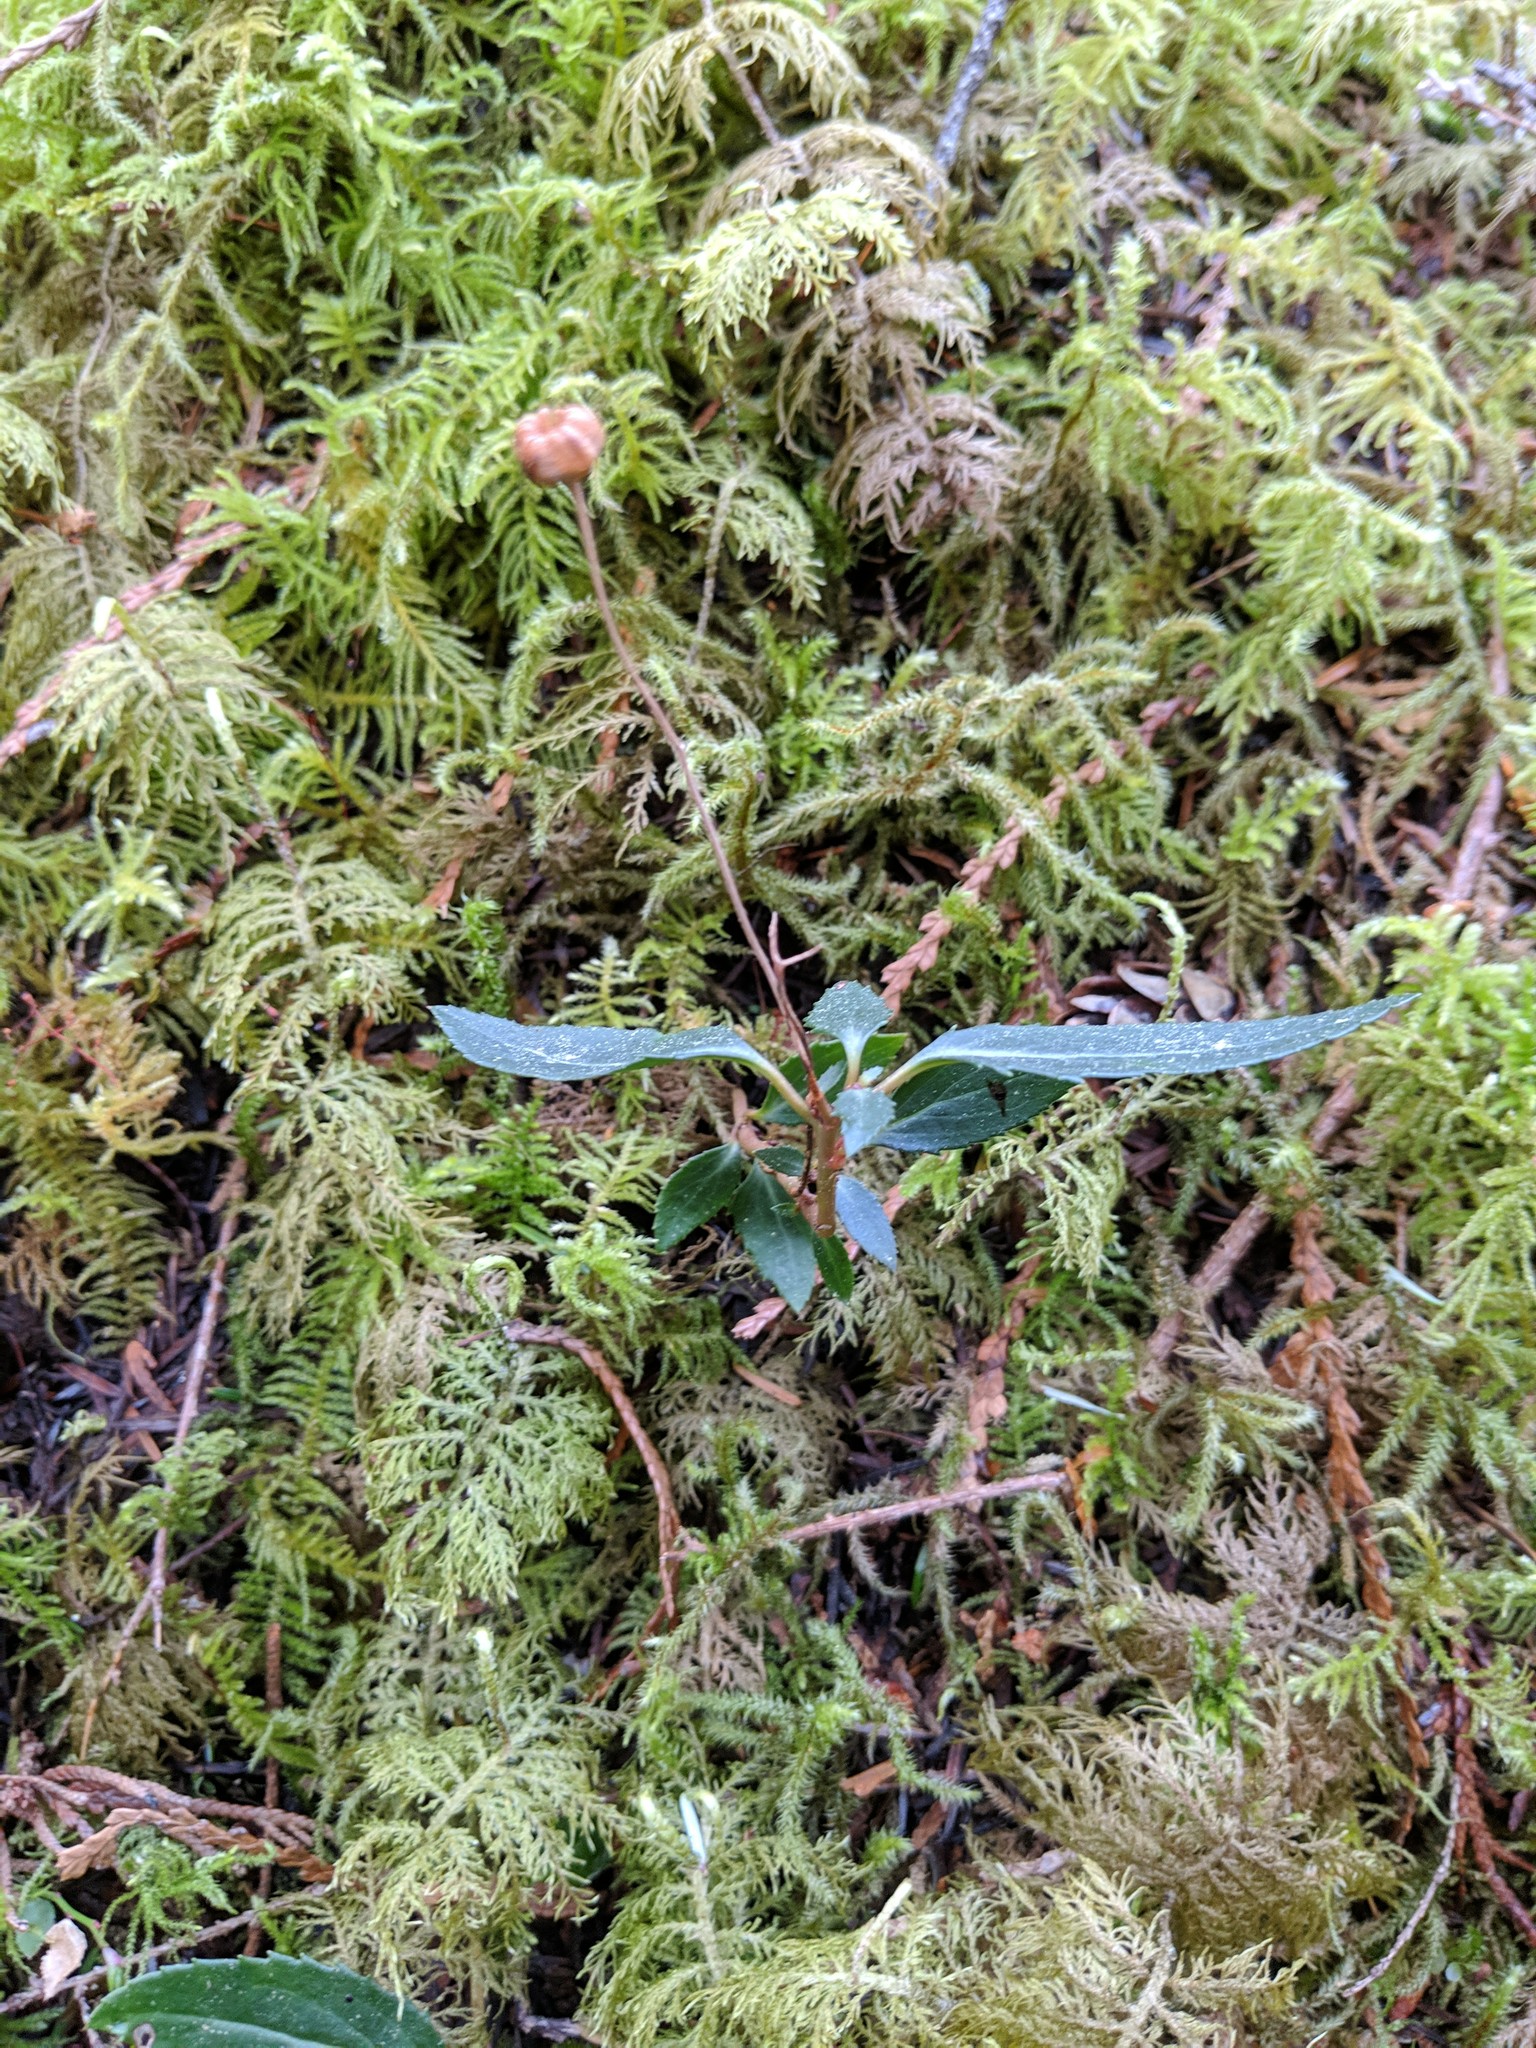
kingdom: Plantae
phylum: Tracheophyta
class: Magnoliopsida
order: Ericales
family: Ericaceae
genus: Chimaphila
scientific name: Chimaphila menziesii
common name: Menzies' pipsissewa
